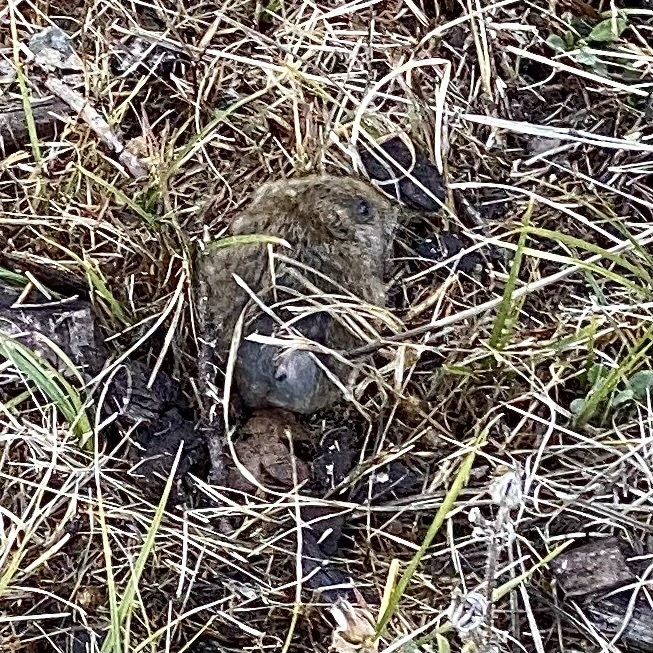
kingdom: Animalia
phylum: Chordata
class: Mammalia
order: Rodentia
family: Cricetidae
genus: Microtus
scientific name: Microtus californicus
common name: California vole
